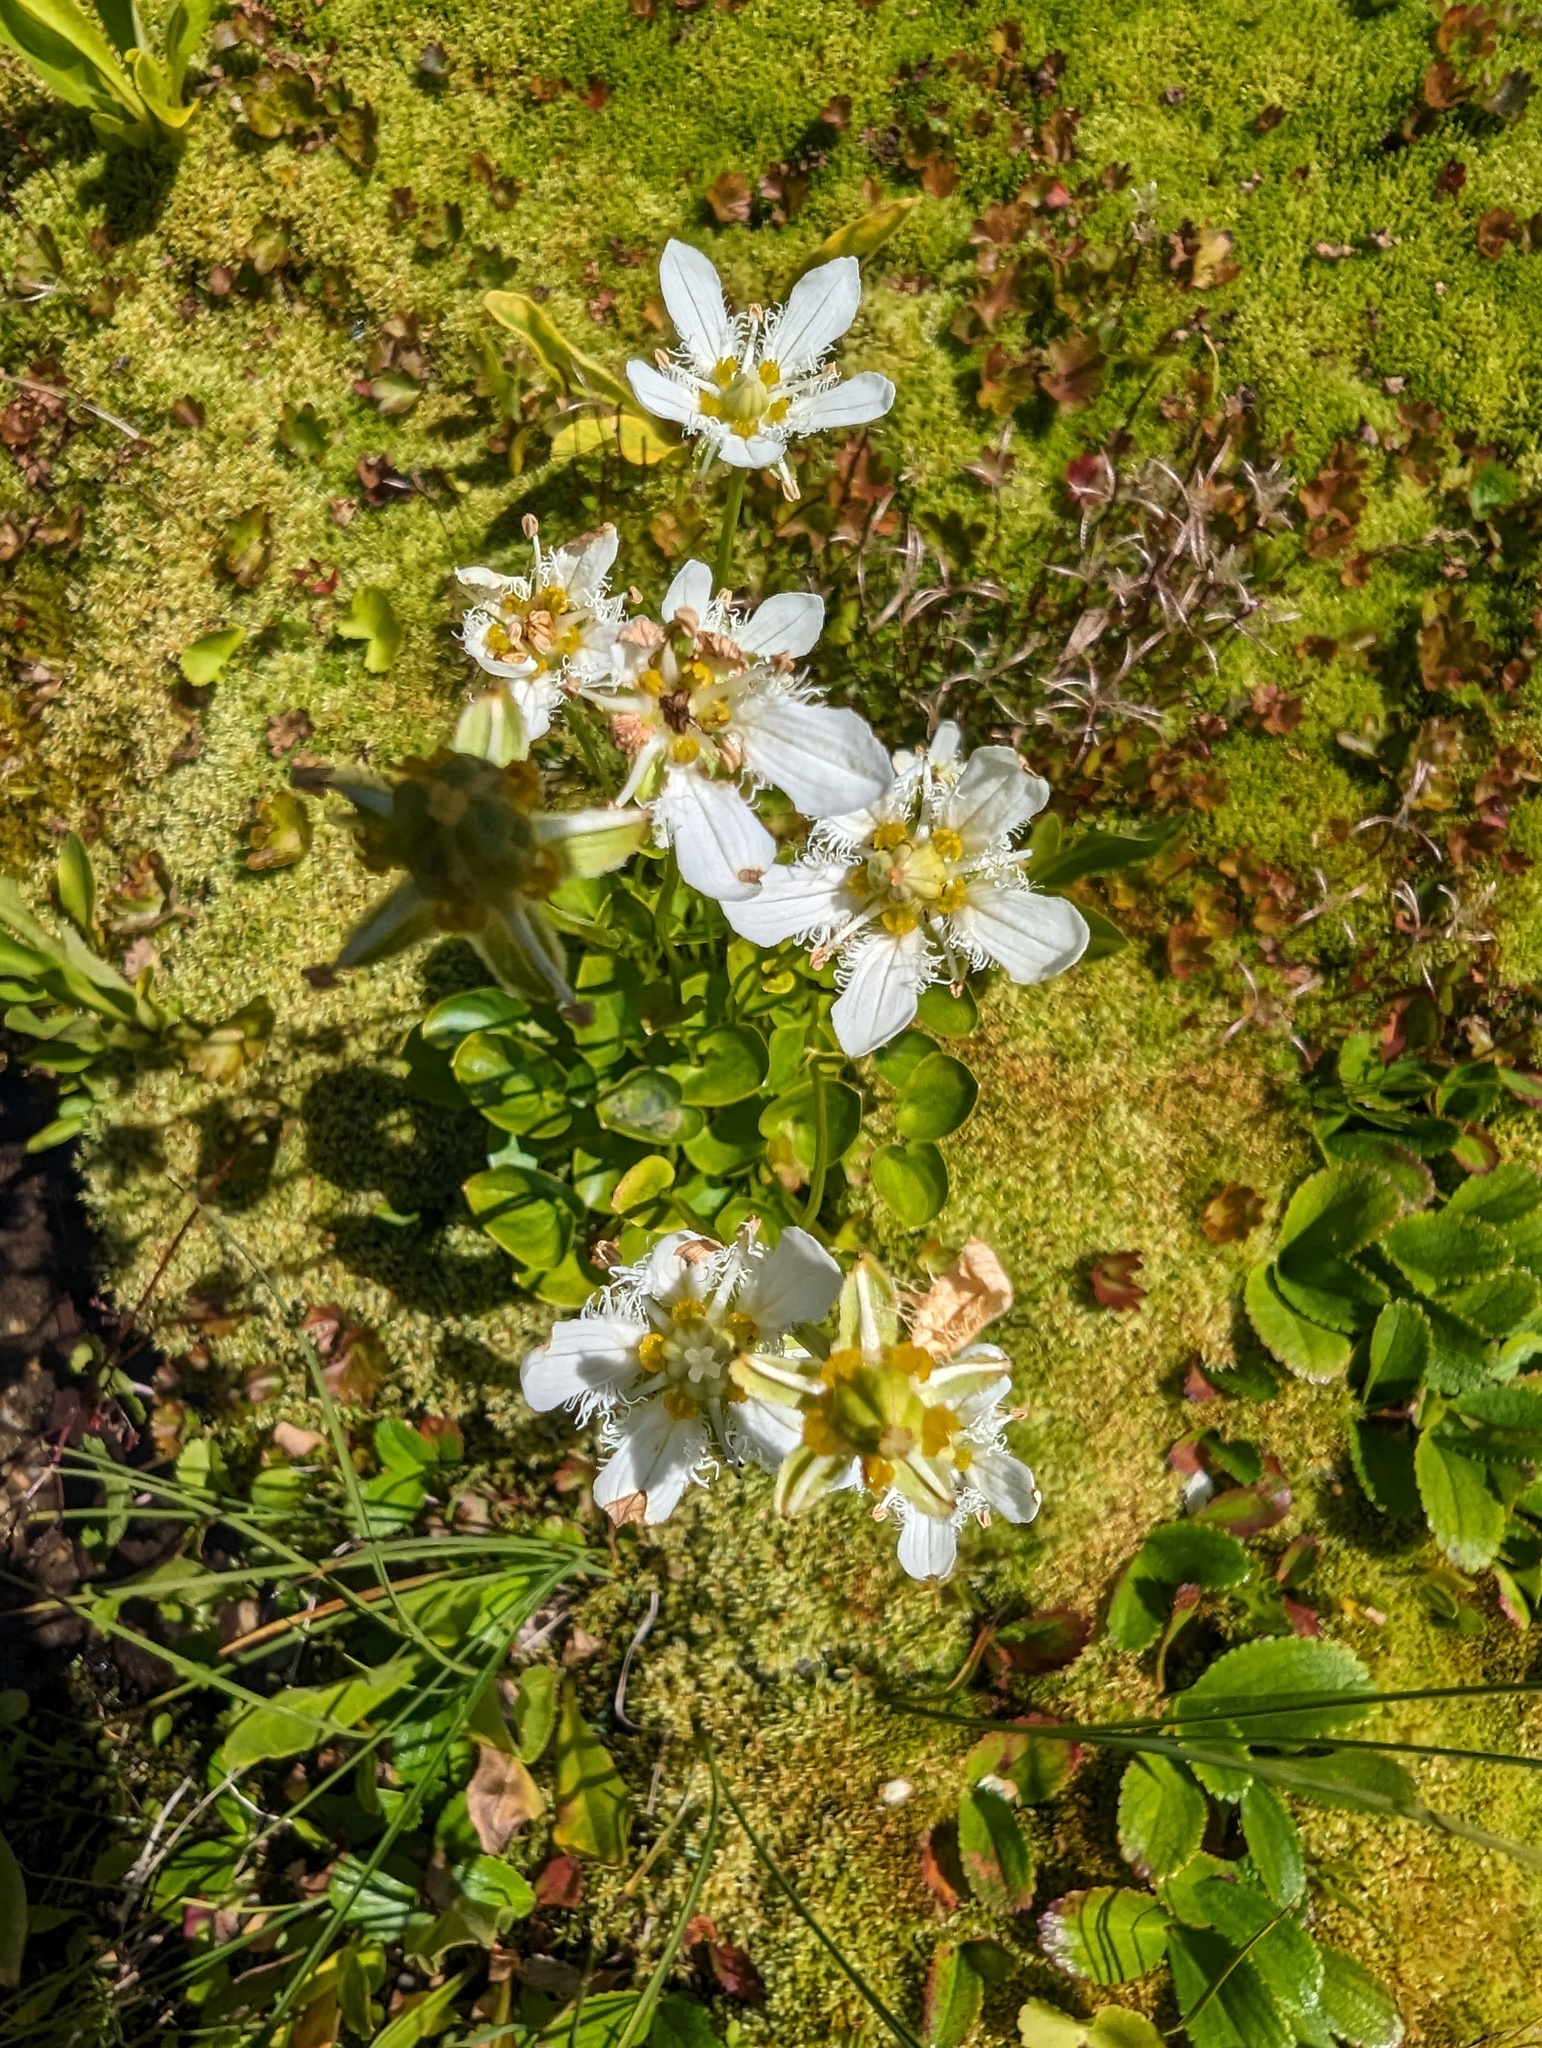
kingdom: Plantae
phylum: Tracheophyta
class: Magnoliopsida
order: Celastrales
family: Parnassiaceae
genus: Parnassia
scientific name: Parnassia fimbriata
